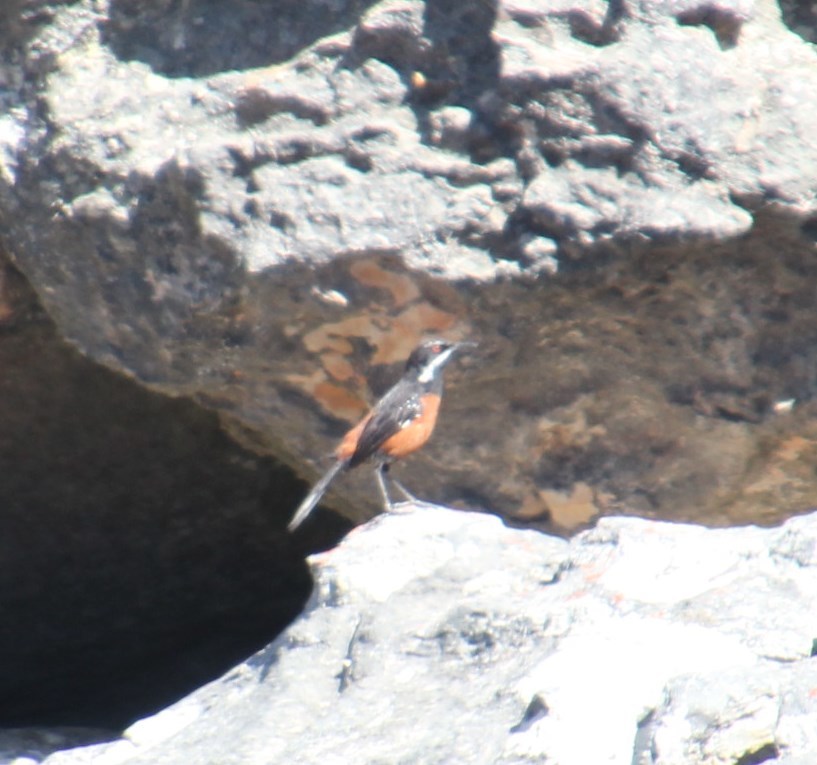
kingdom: Animalia
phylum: Chordata
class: Aves
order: Passeriformes
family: Chaetopidae
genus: Chaetops
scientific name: Chaetops frenatus
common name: Cape rockjumper
